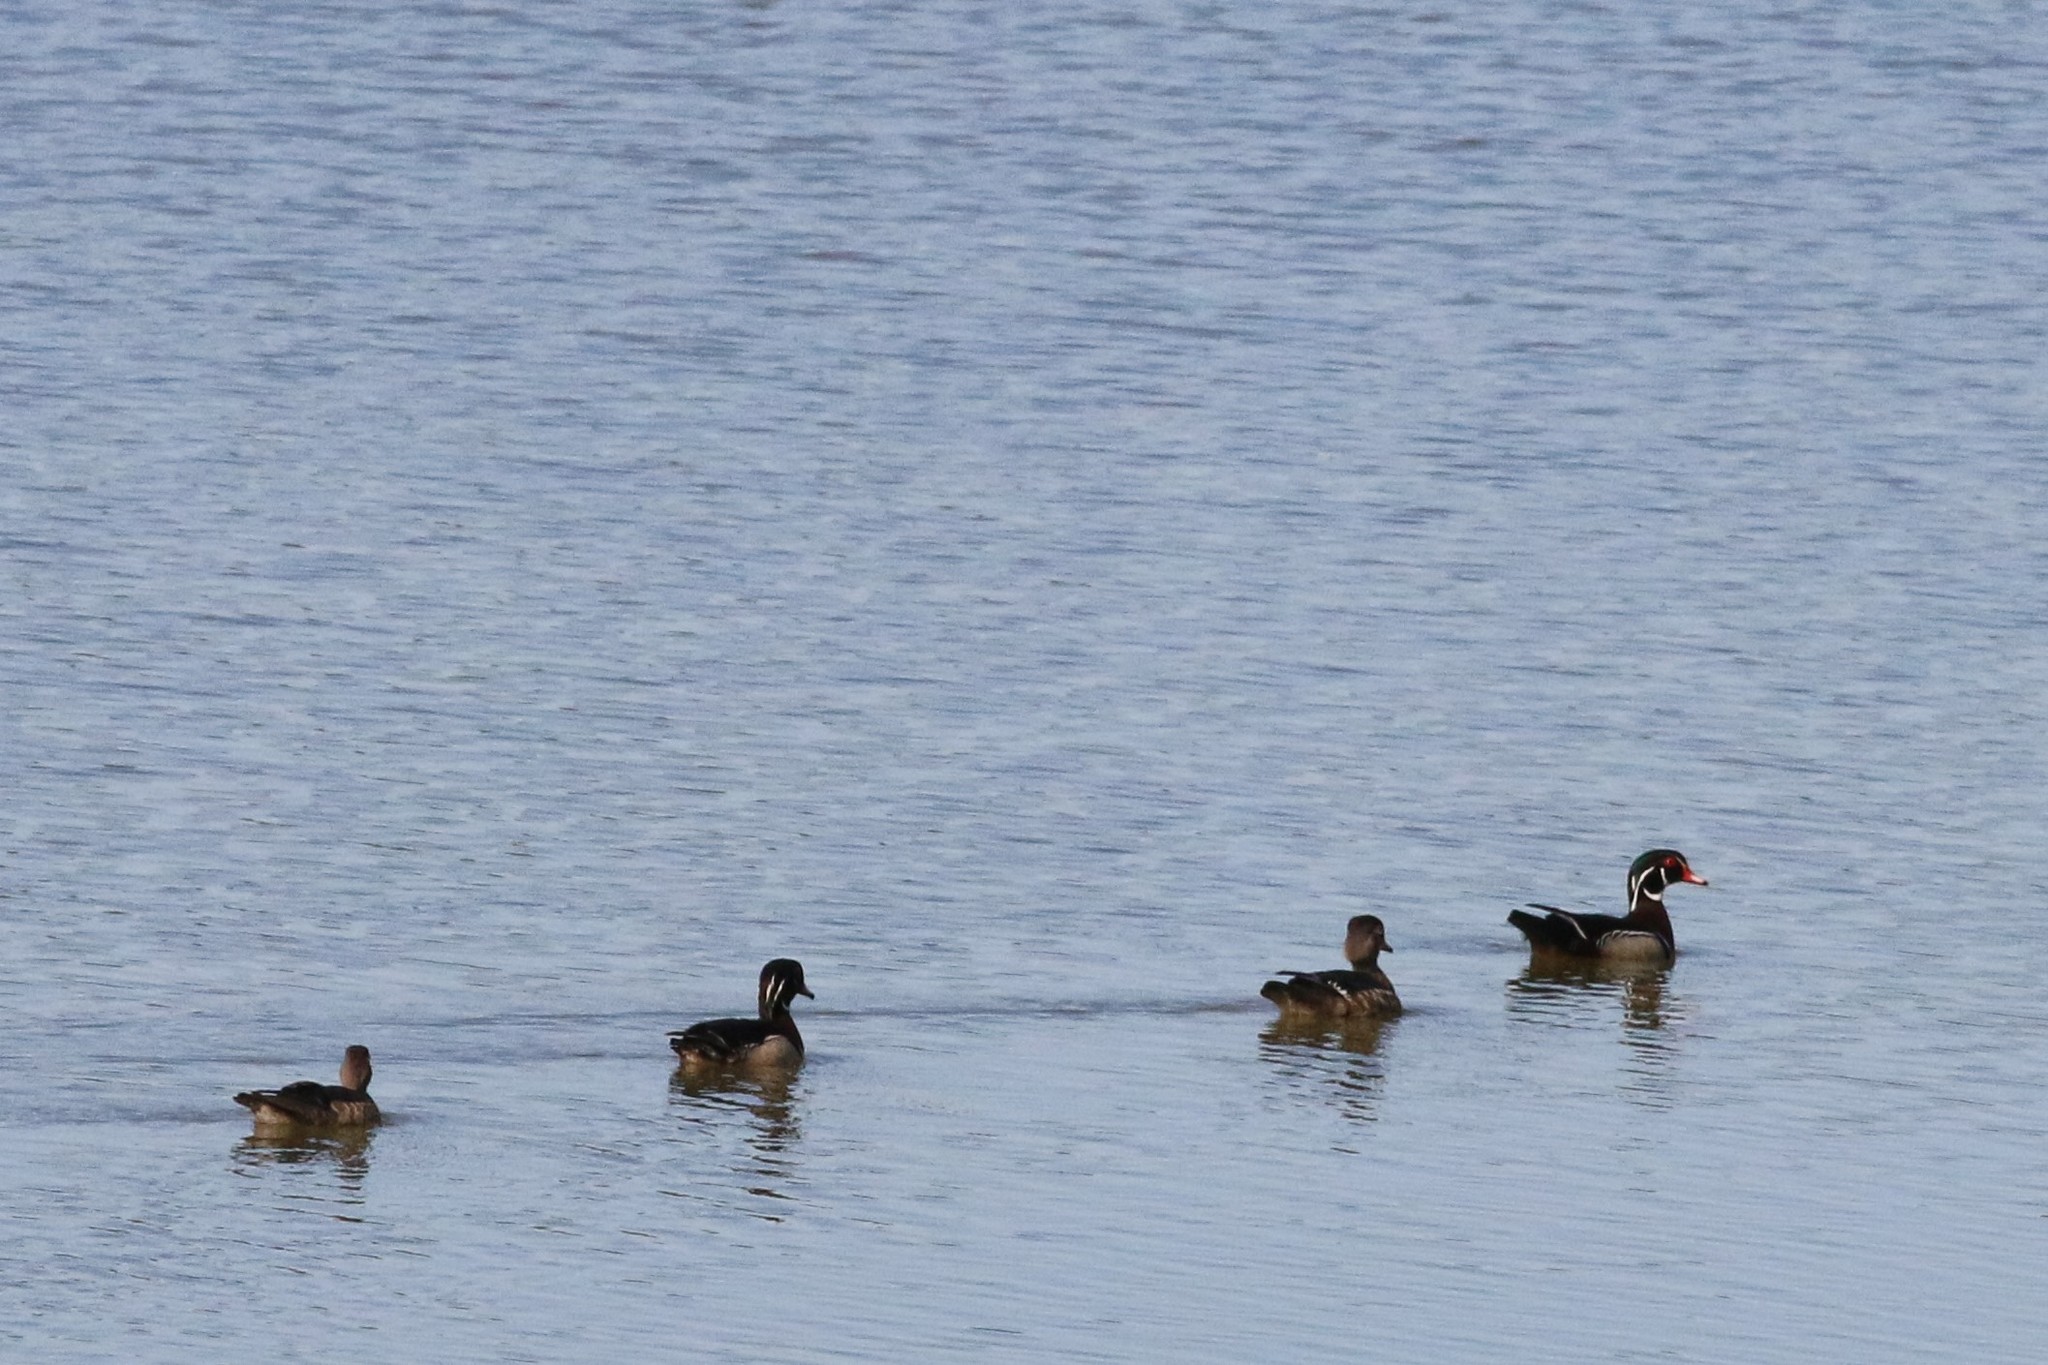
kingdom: Animalia
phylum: Chordata
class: Aves
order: Anseriformes
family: Anatidae
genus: Aix
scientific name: Aix sponsa
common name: Wood duck
